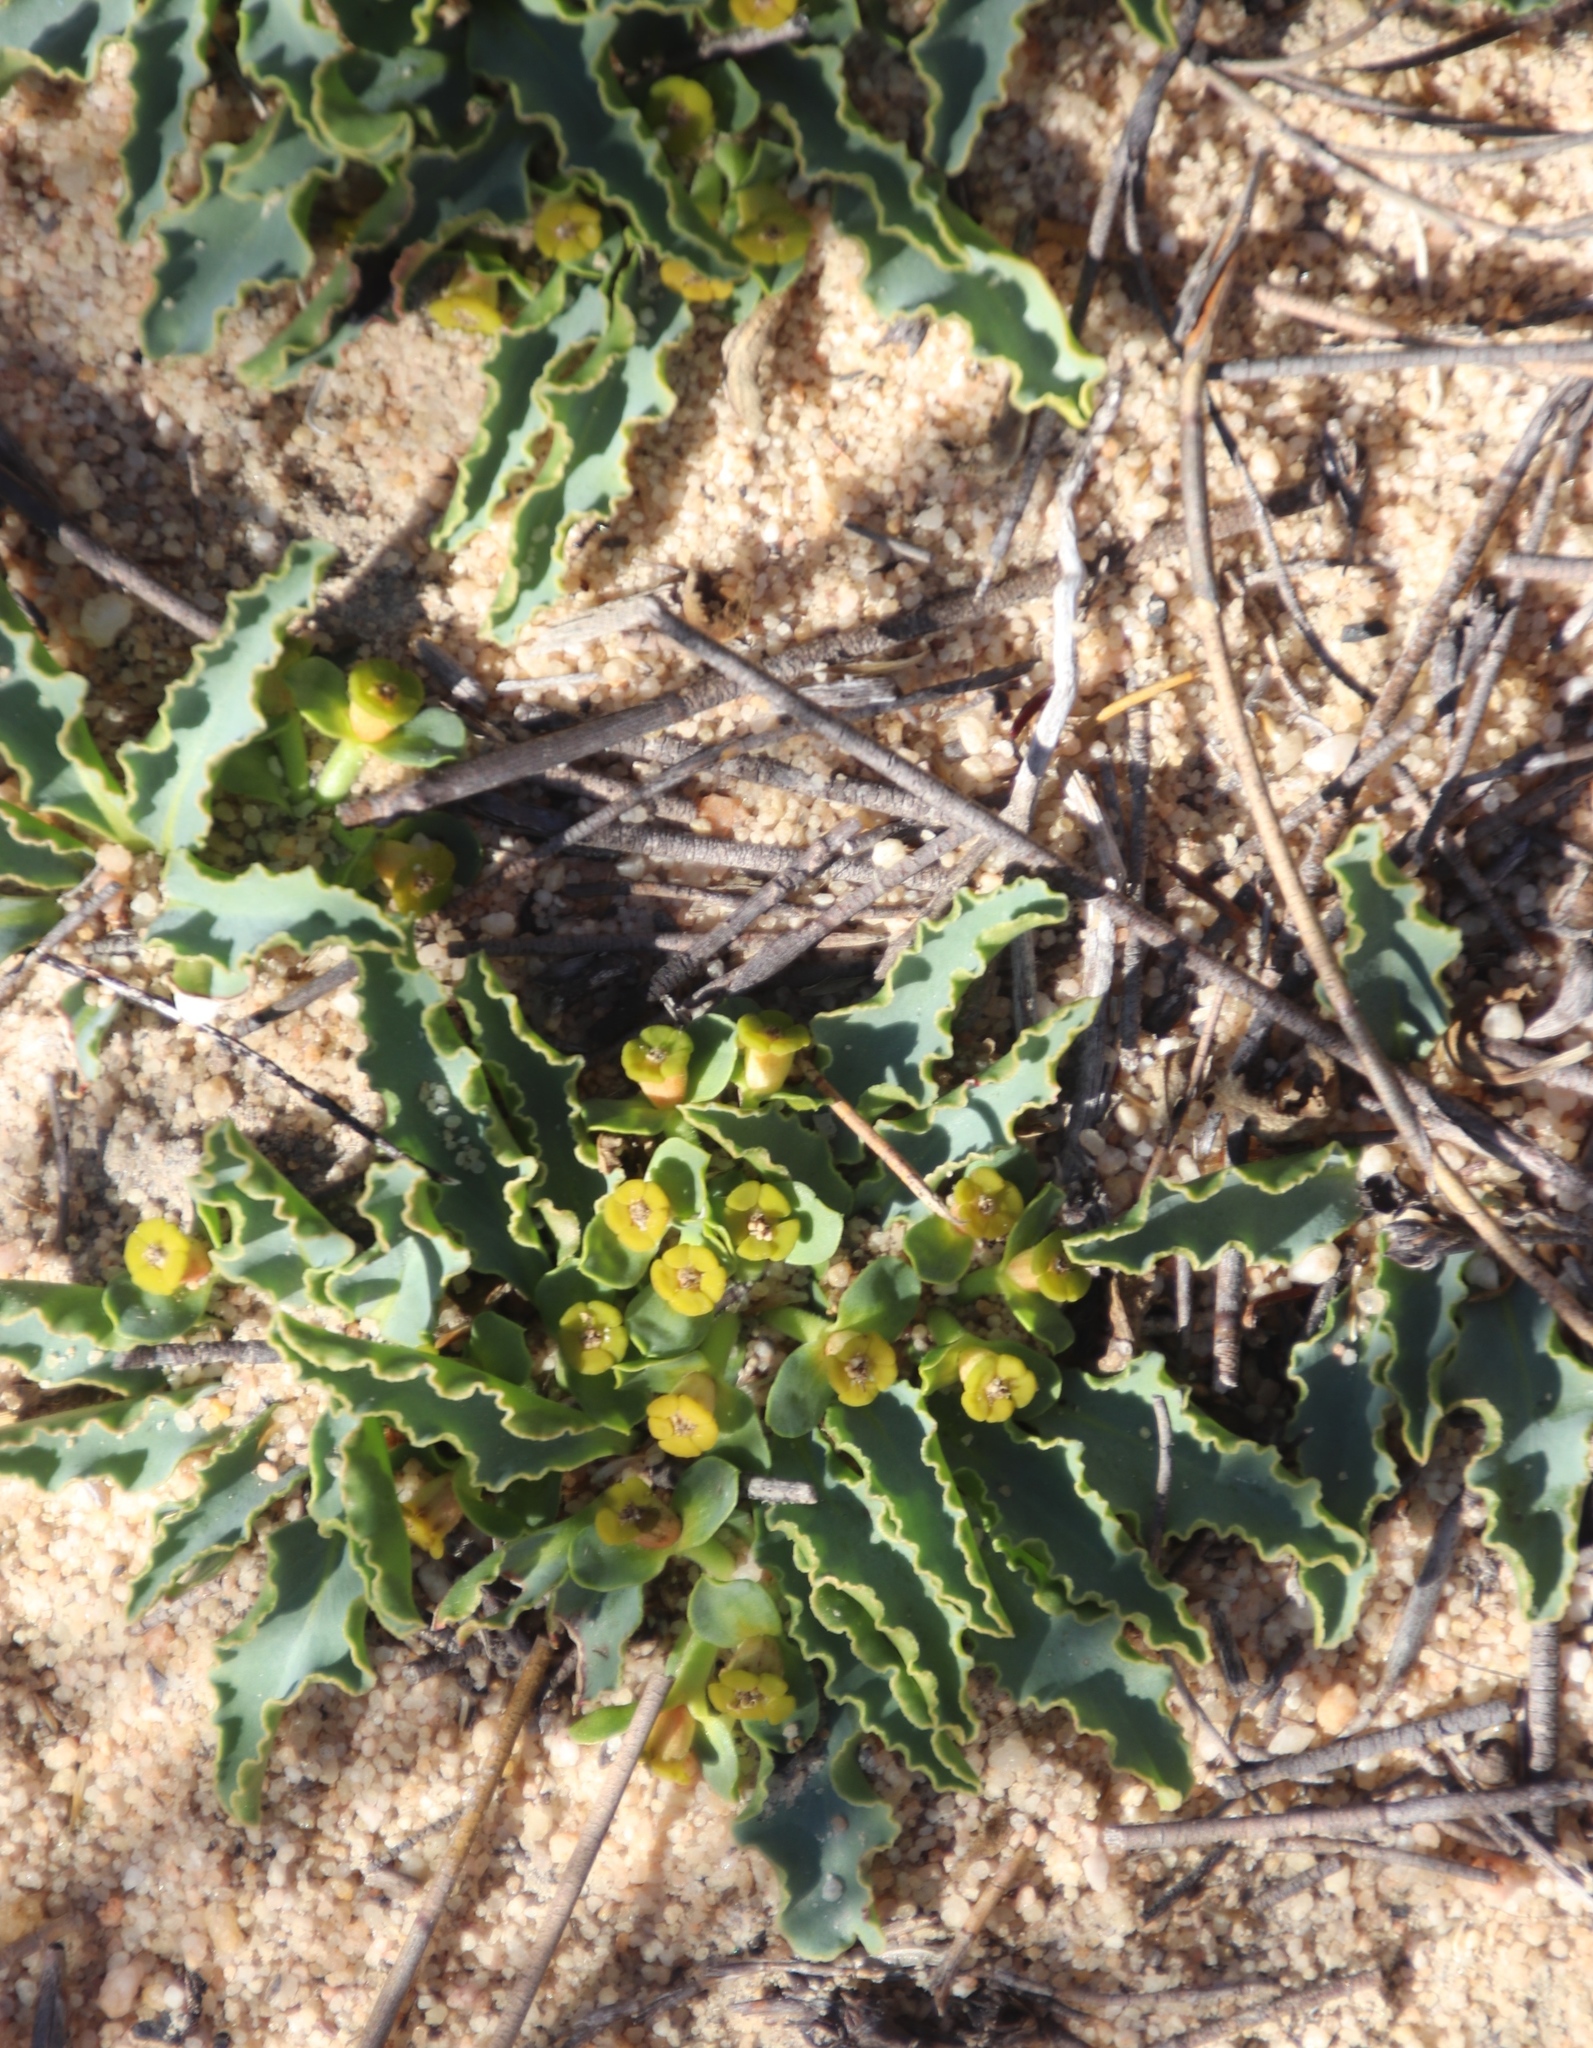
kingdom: Plantae
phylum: Tracheophyta
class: Magnoliopsida
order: Malpighiales
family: Euphorbiaceae
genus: Euphorbia
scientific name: Euphorbia tuberosa
